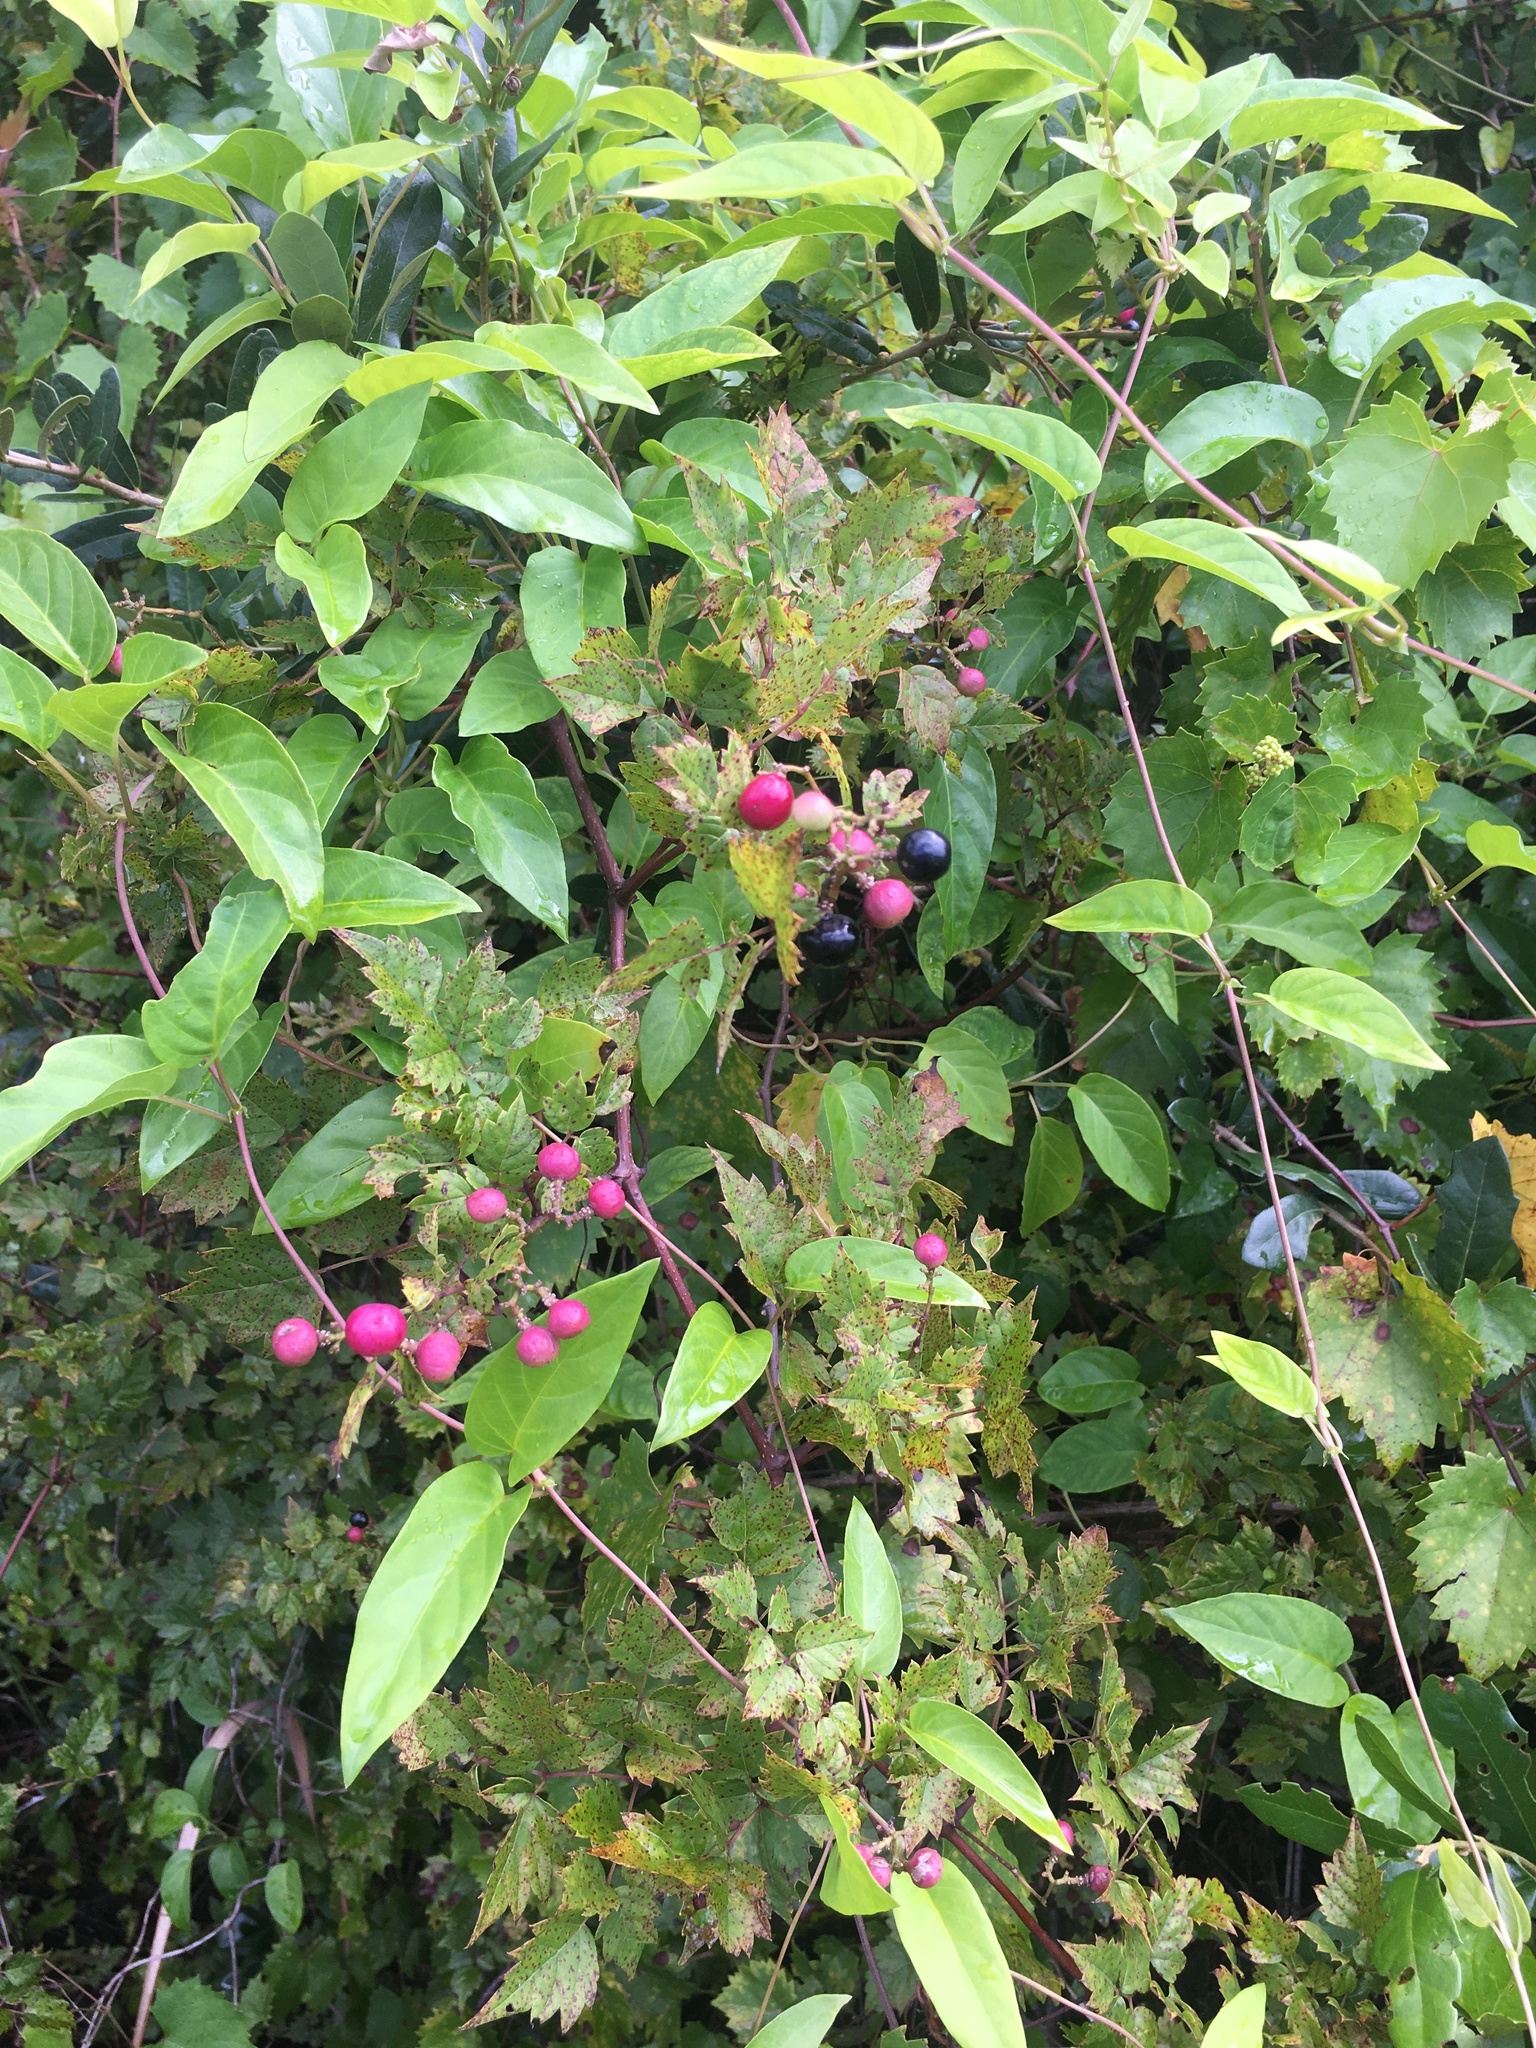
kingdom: Plantae
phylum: Tracheophyta
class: Magnoliopsida
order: Vitales
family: Vitaceae
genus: Nekemias
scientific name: Nekemias arborea
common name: Peppervine
